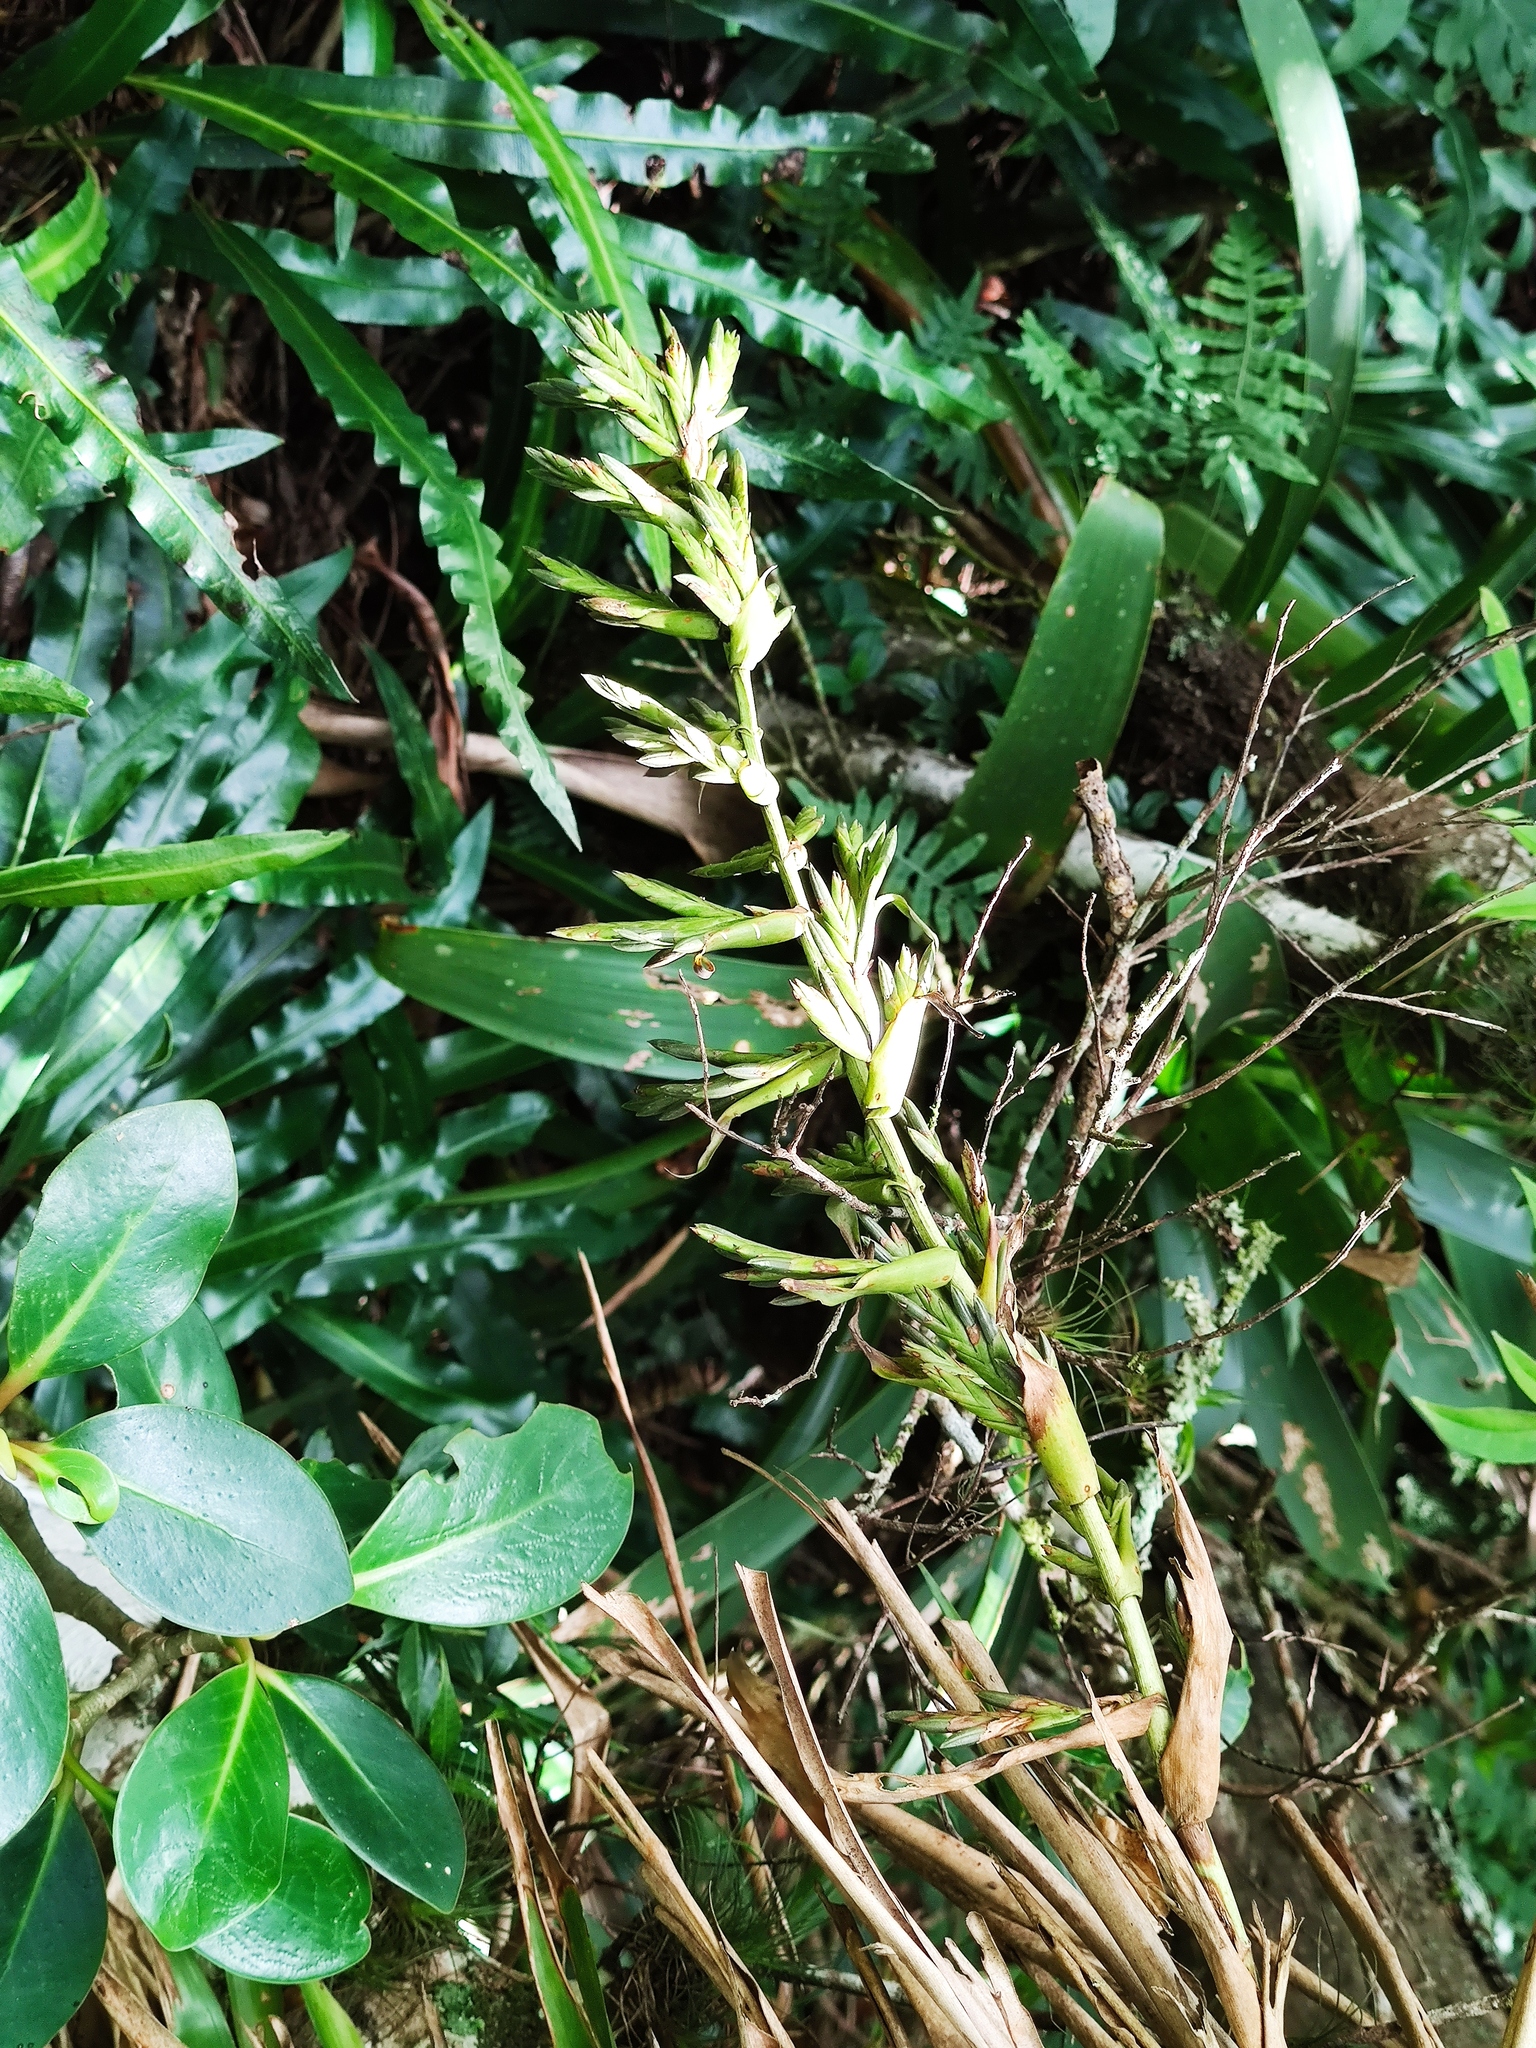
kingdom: Plantae
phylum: Tracheophyta
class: Liliopsida
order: Poales
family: Bromeliaceae
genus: Tillandsia
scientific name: Tillandsia guatemalensis
